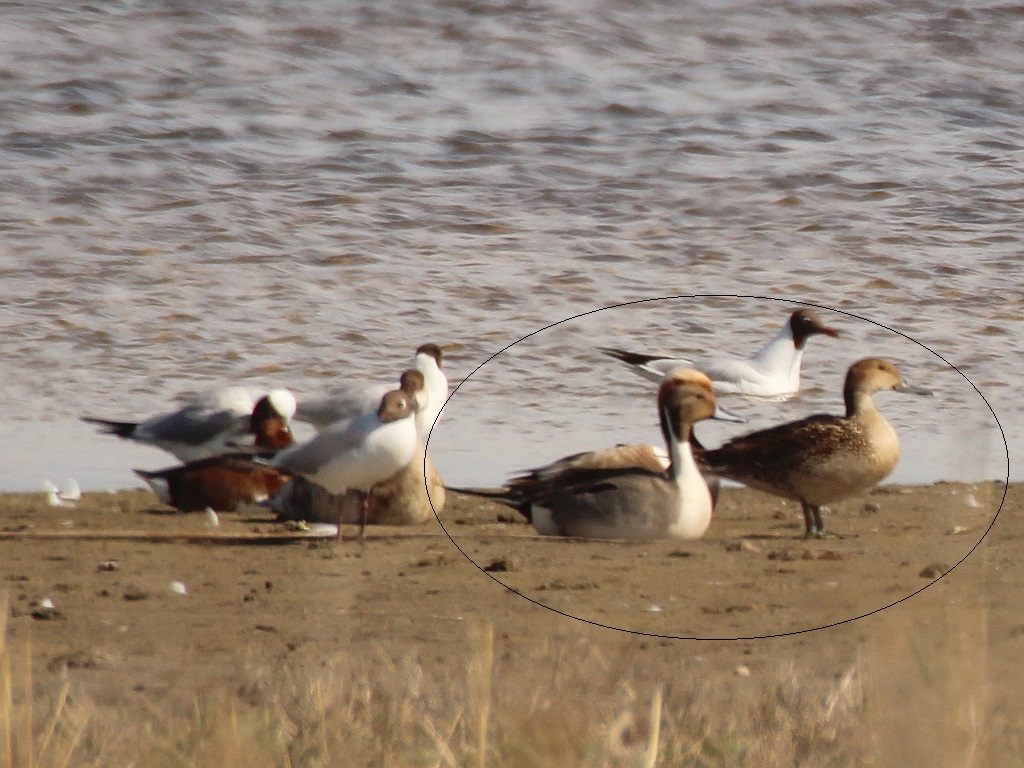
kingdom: Animalia
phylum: Chordata
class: Aves
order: Anseriformes
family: Anatidae
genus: Anas
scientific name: Anas acuta
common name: Northern pintail
